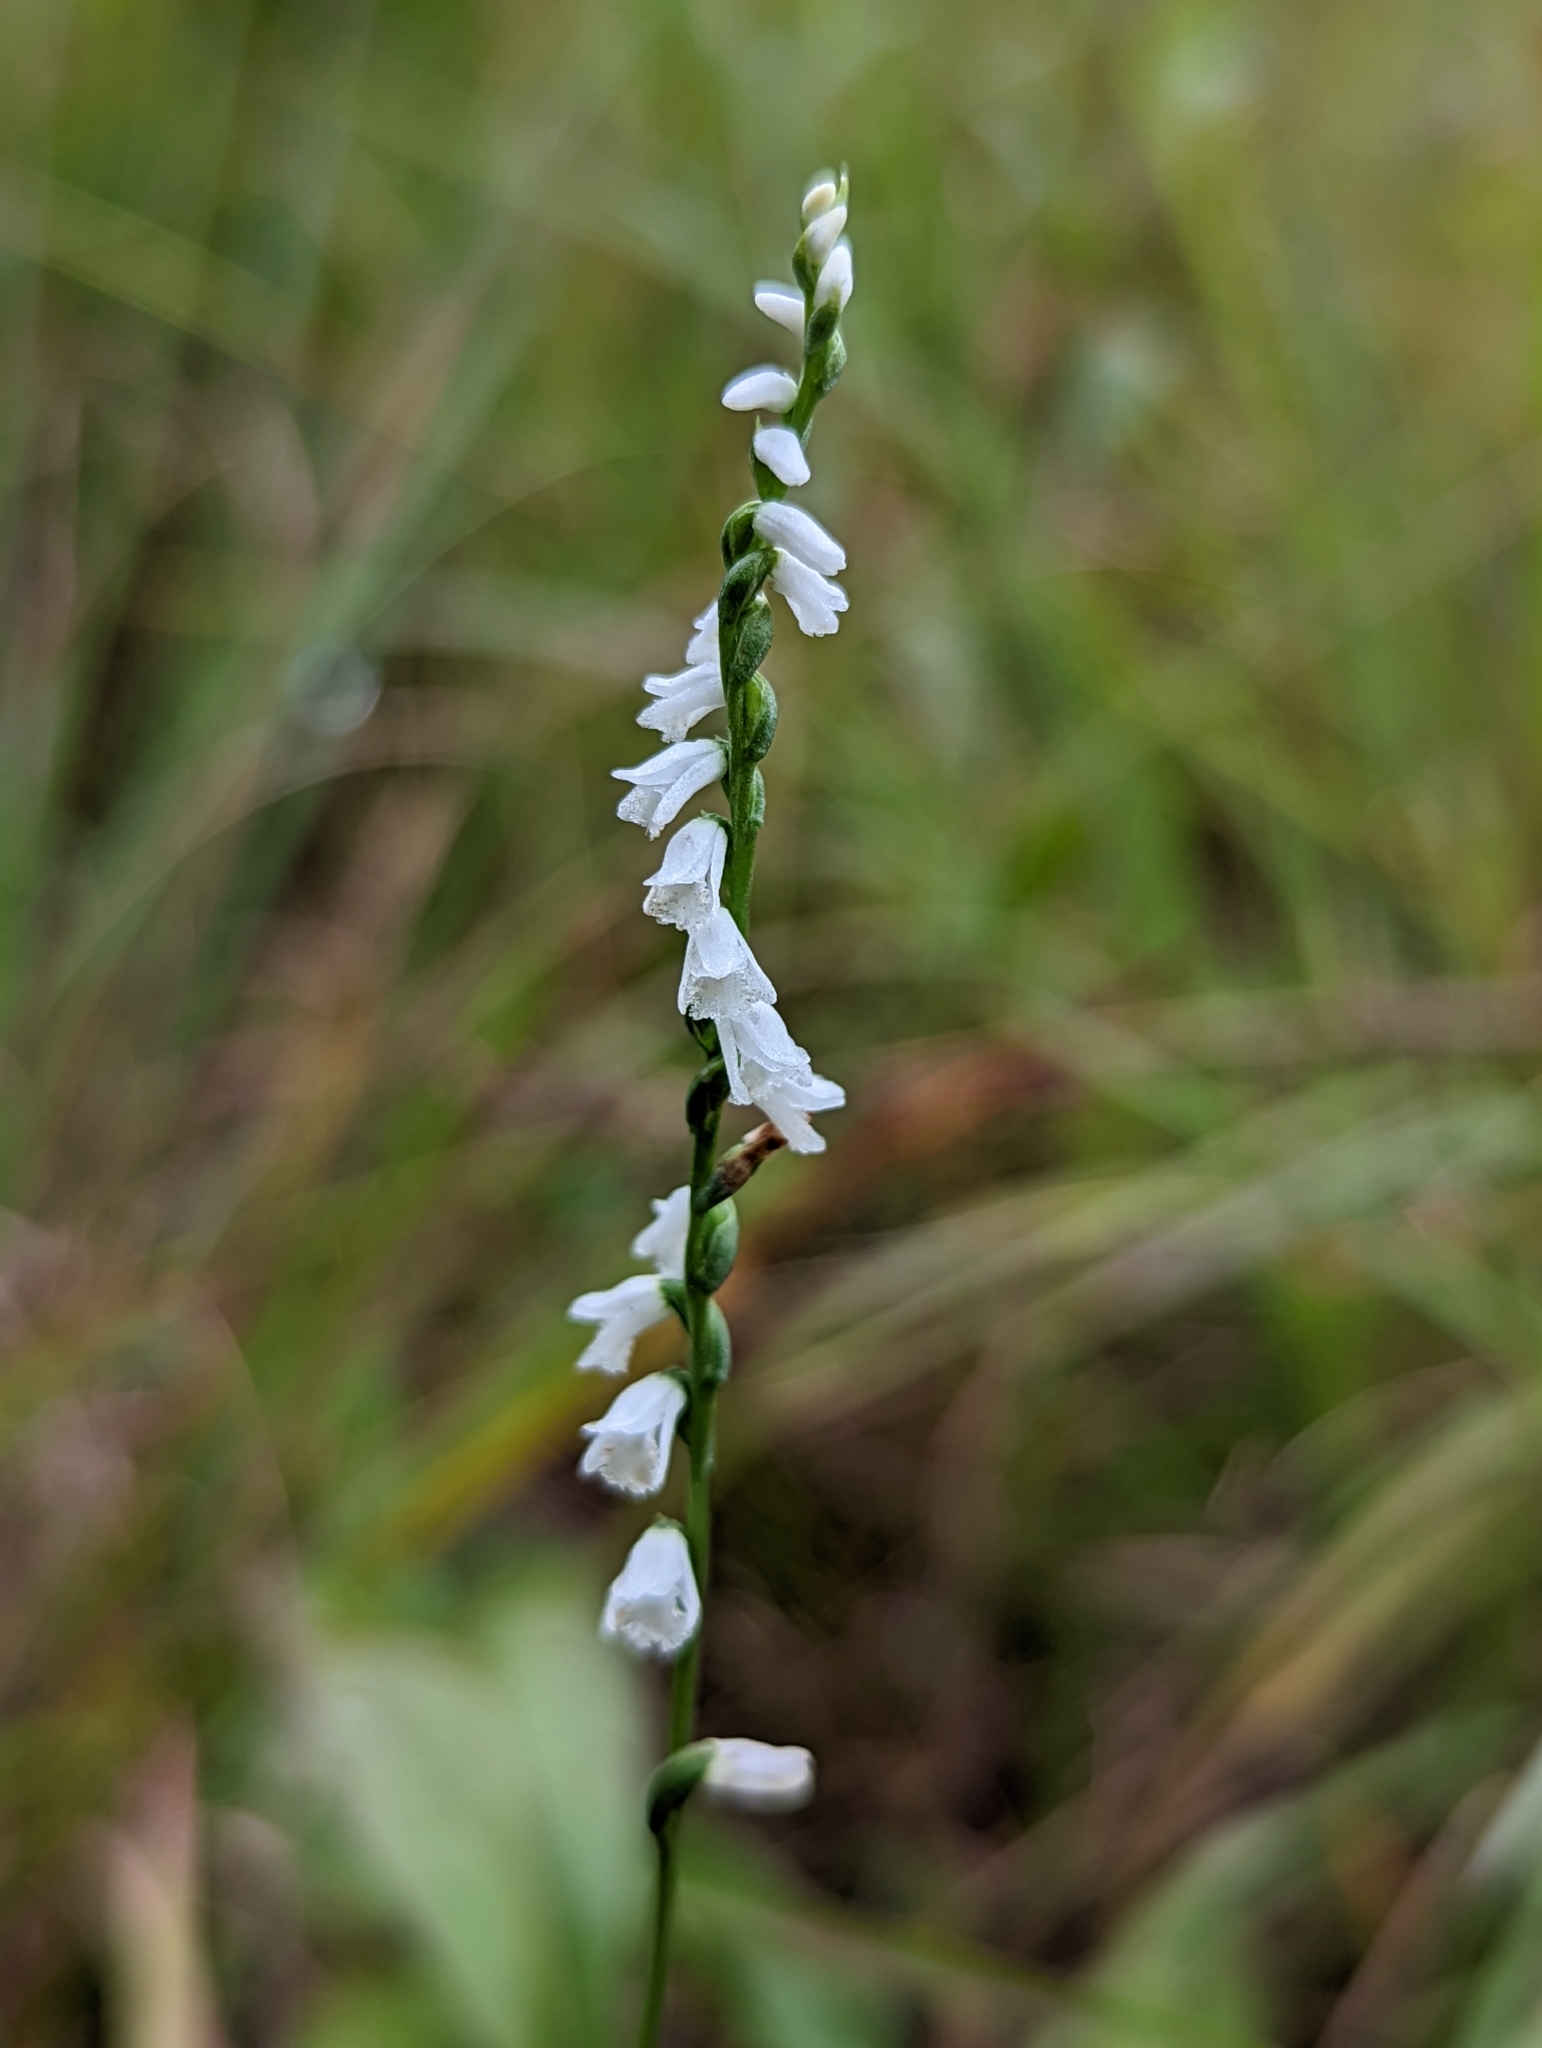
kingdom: Plantae
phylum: Tracheophyta
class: Liliopsida
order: Asparagales
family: Orchidaceae
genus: Spiranthes
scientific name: Spiranthes tuberosa
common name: Little ladies'-tresses
